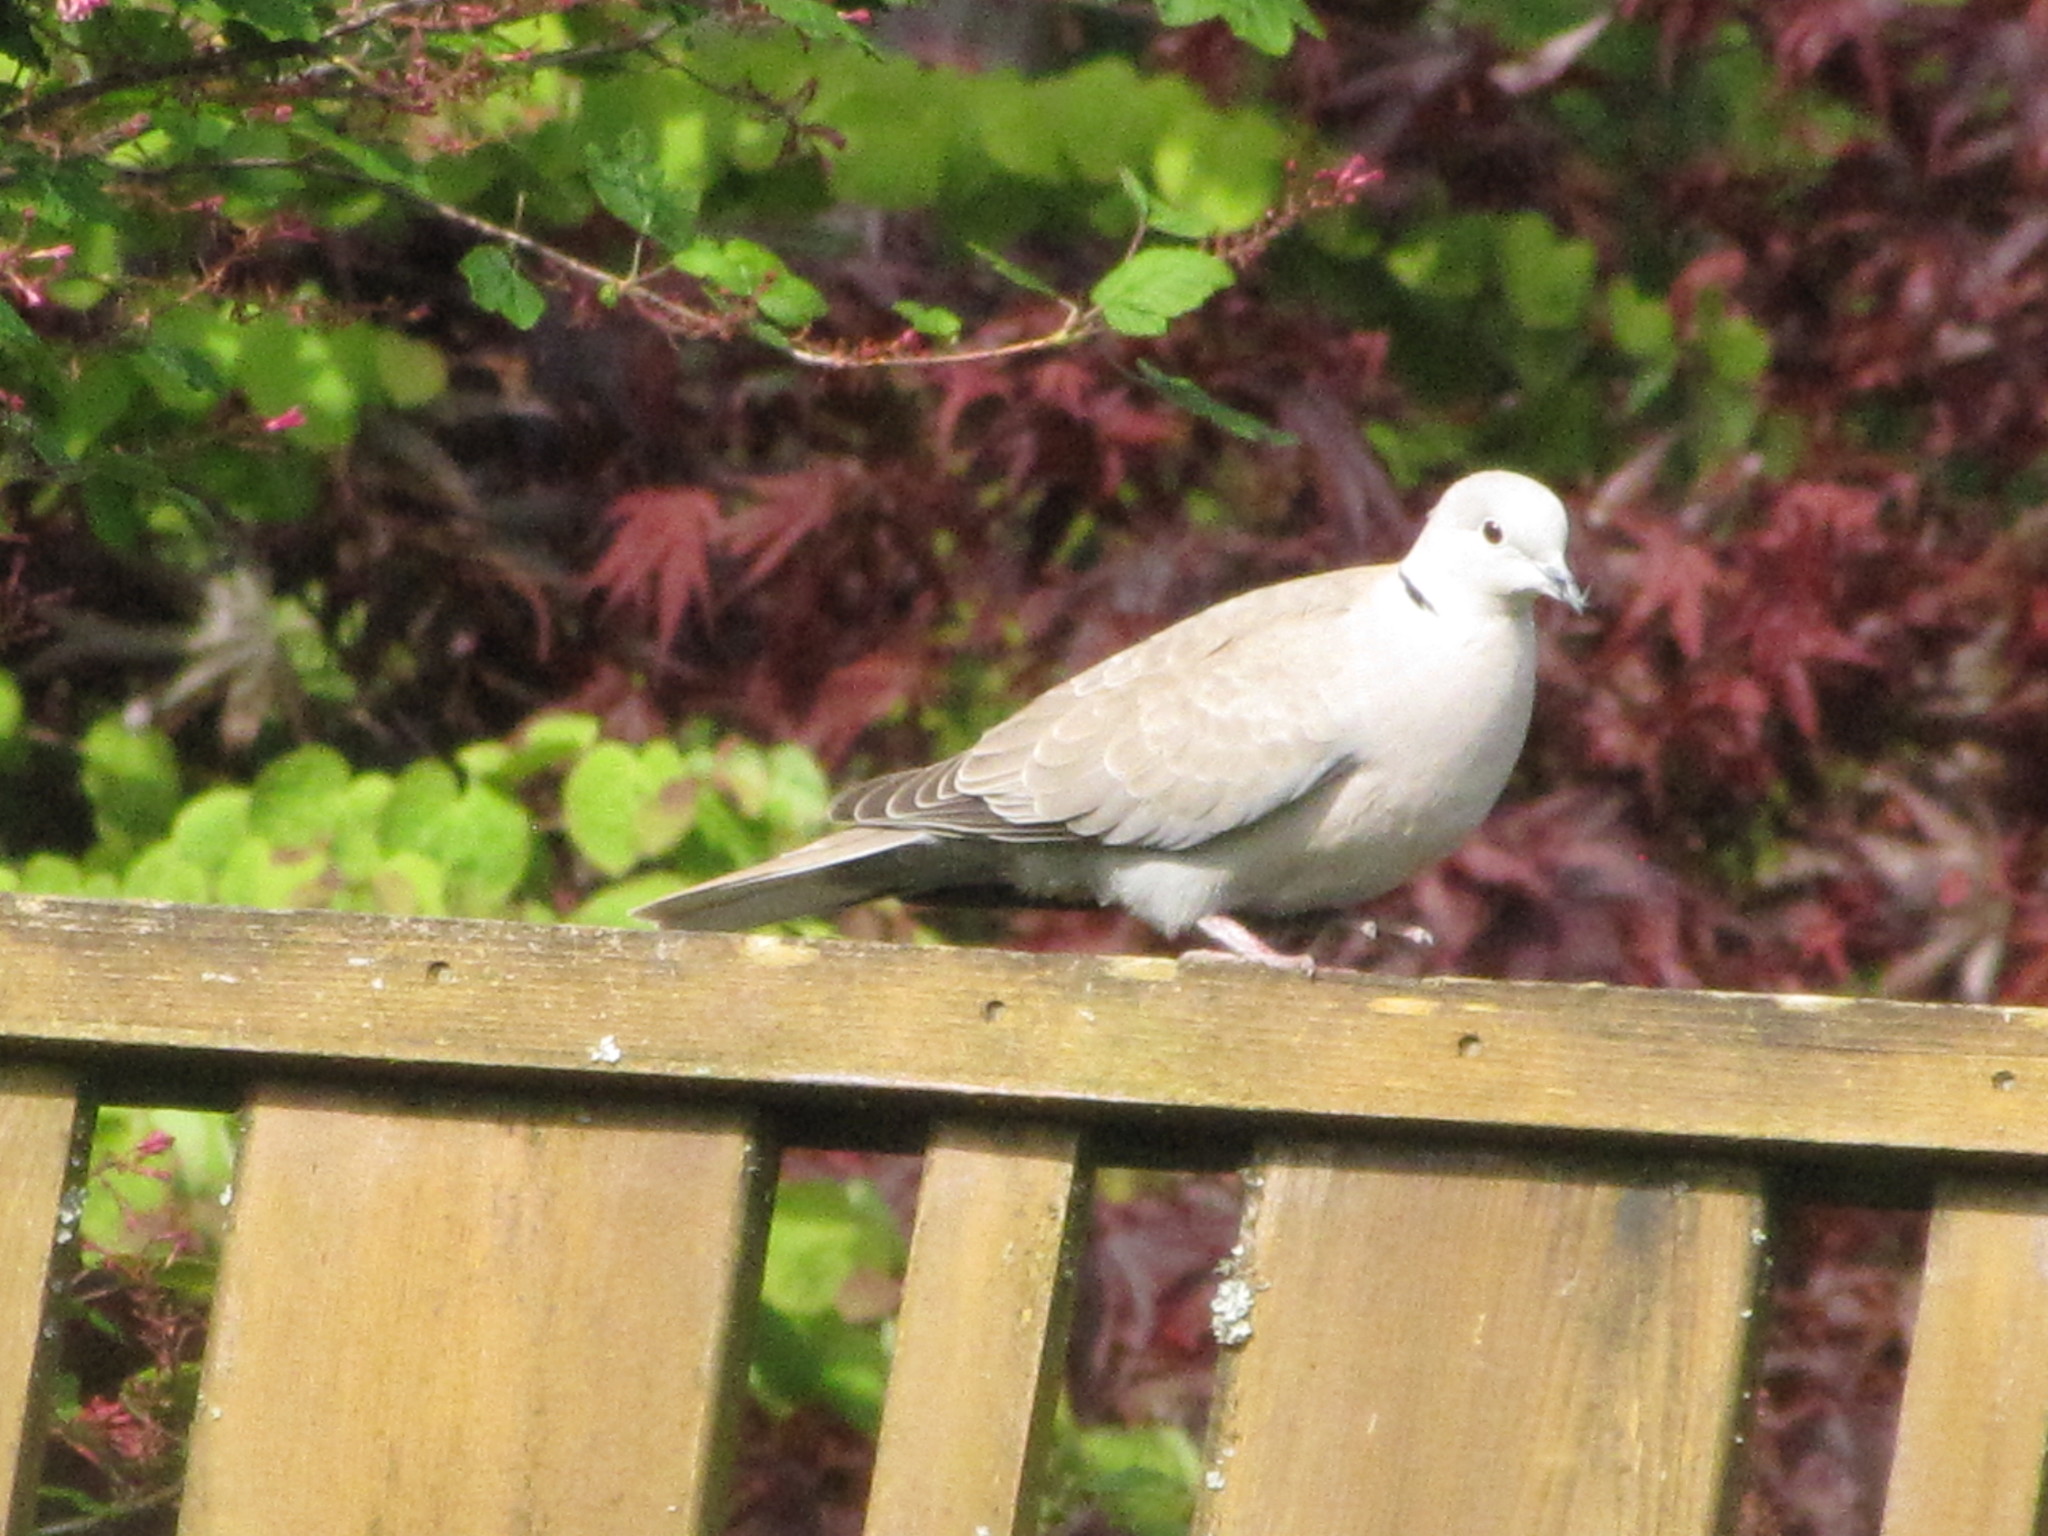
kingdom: Animalia
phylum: Chordata
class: Aves
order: Columbiformes
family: Columbidae
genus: Streptopelia
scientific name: Streptopelia decaocto
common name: Eurasian collared dove
